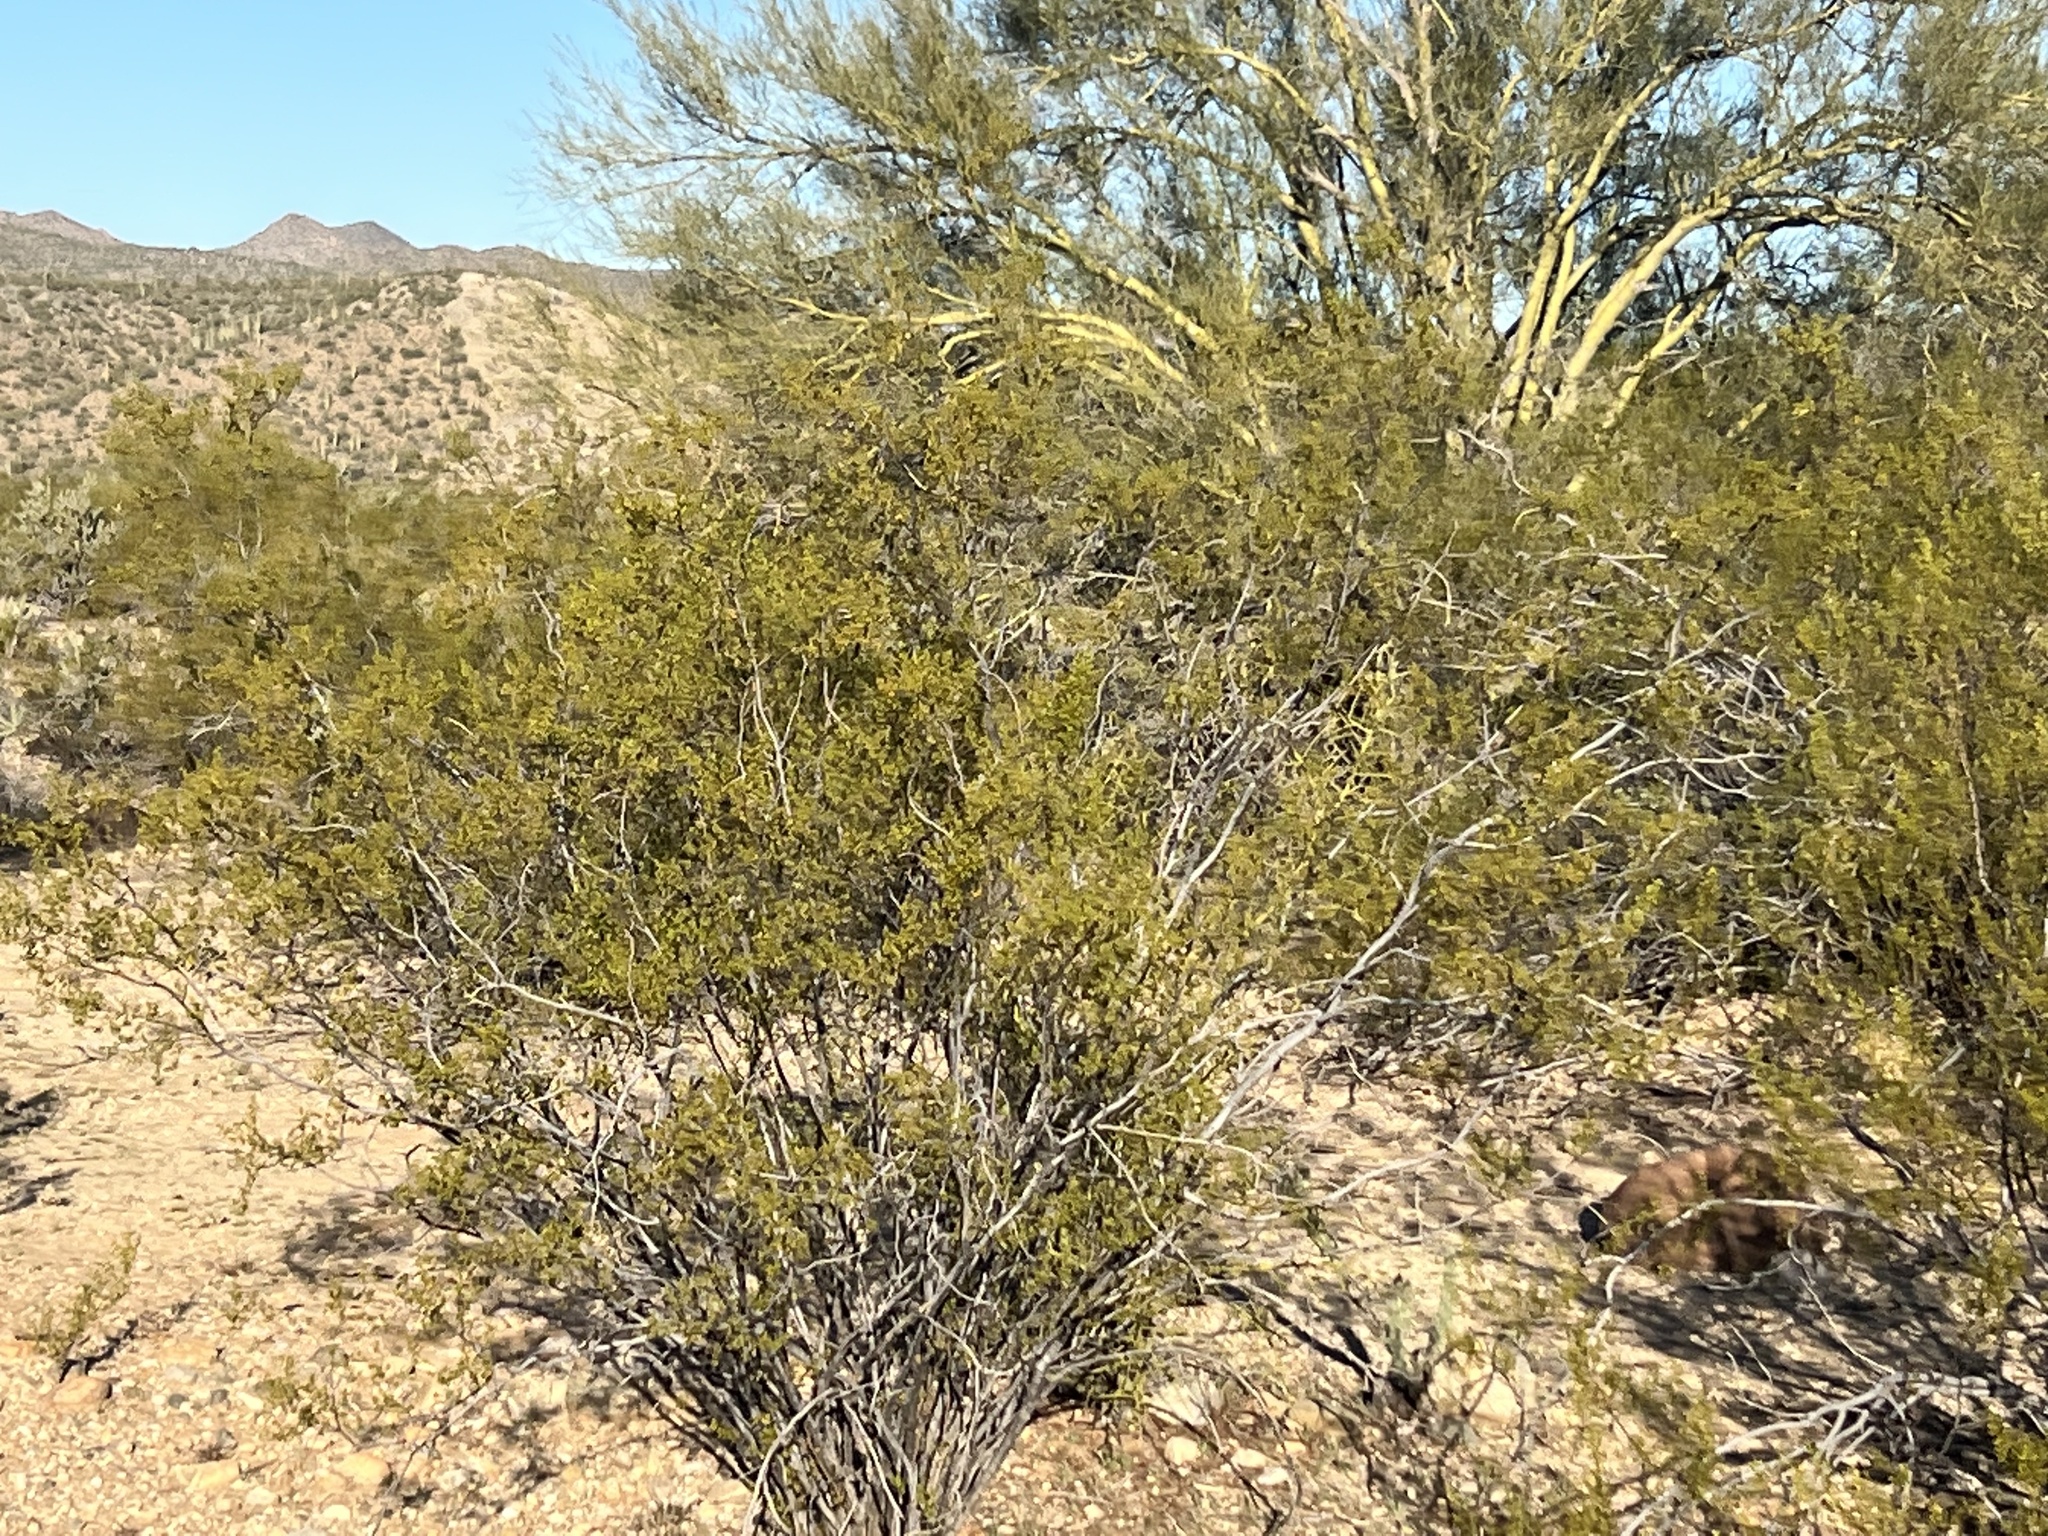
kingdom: Plantae
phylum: Tracheophyta
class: Magnoliopsida
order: Zygophyllales
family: Zygophyllaceae
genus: Larrea
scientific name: Larrea tridentata
